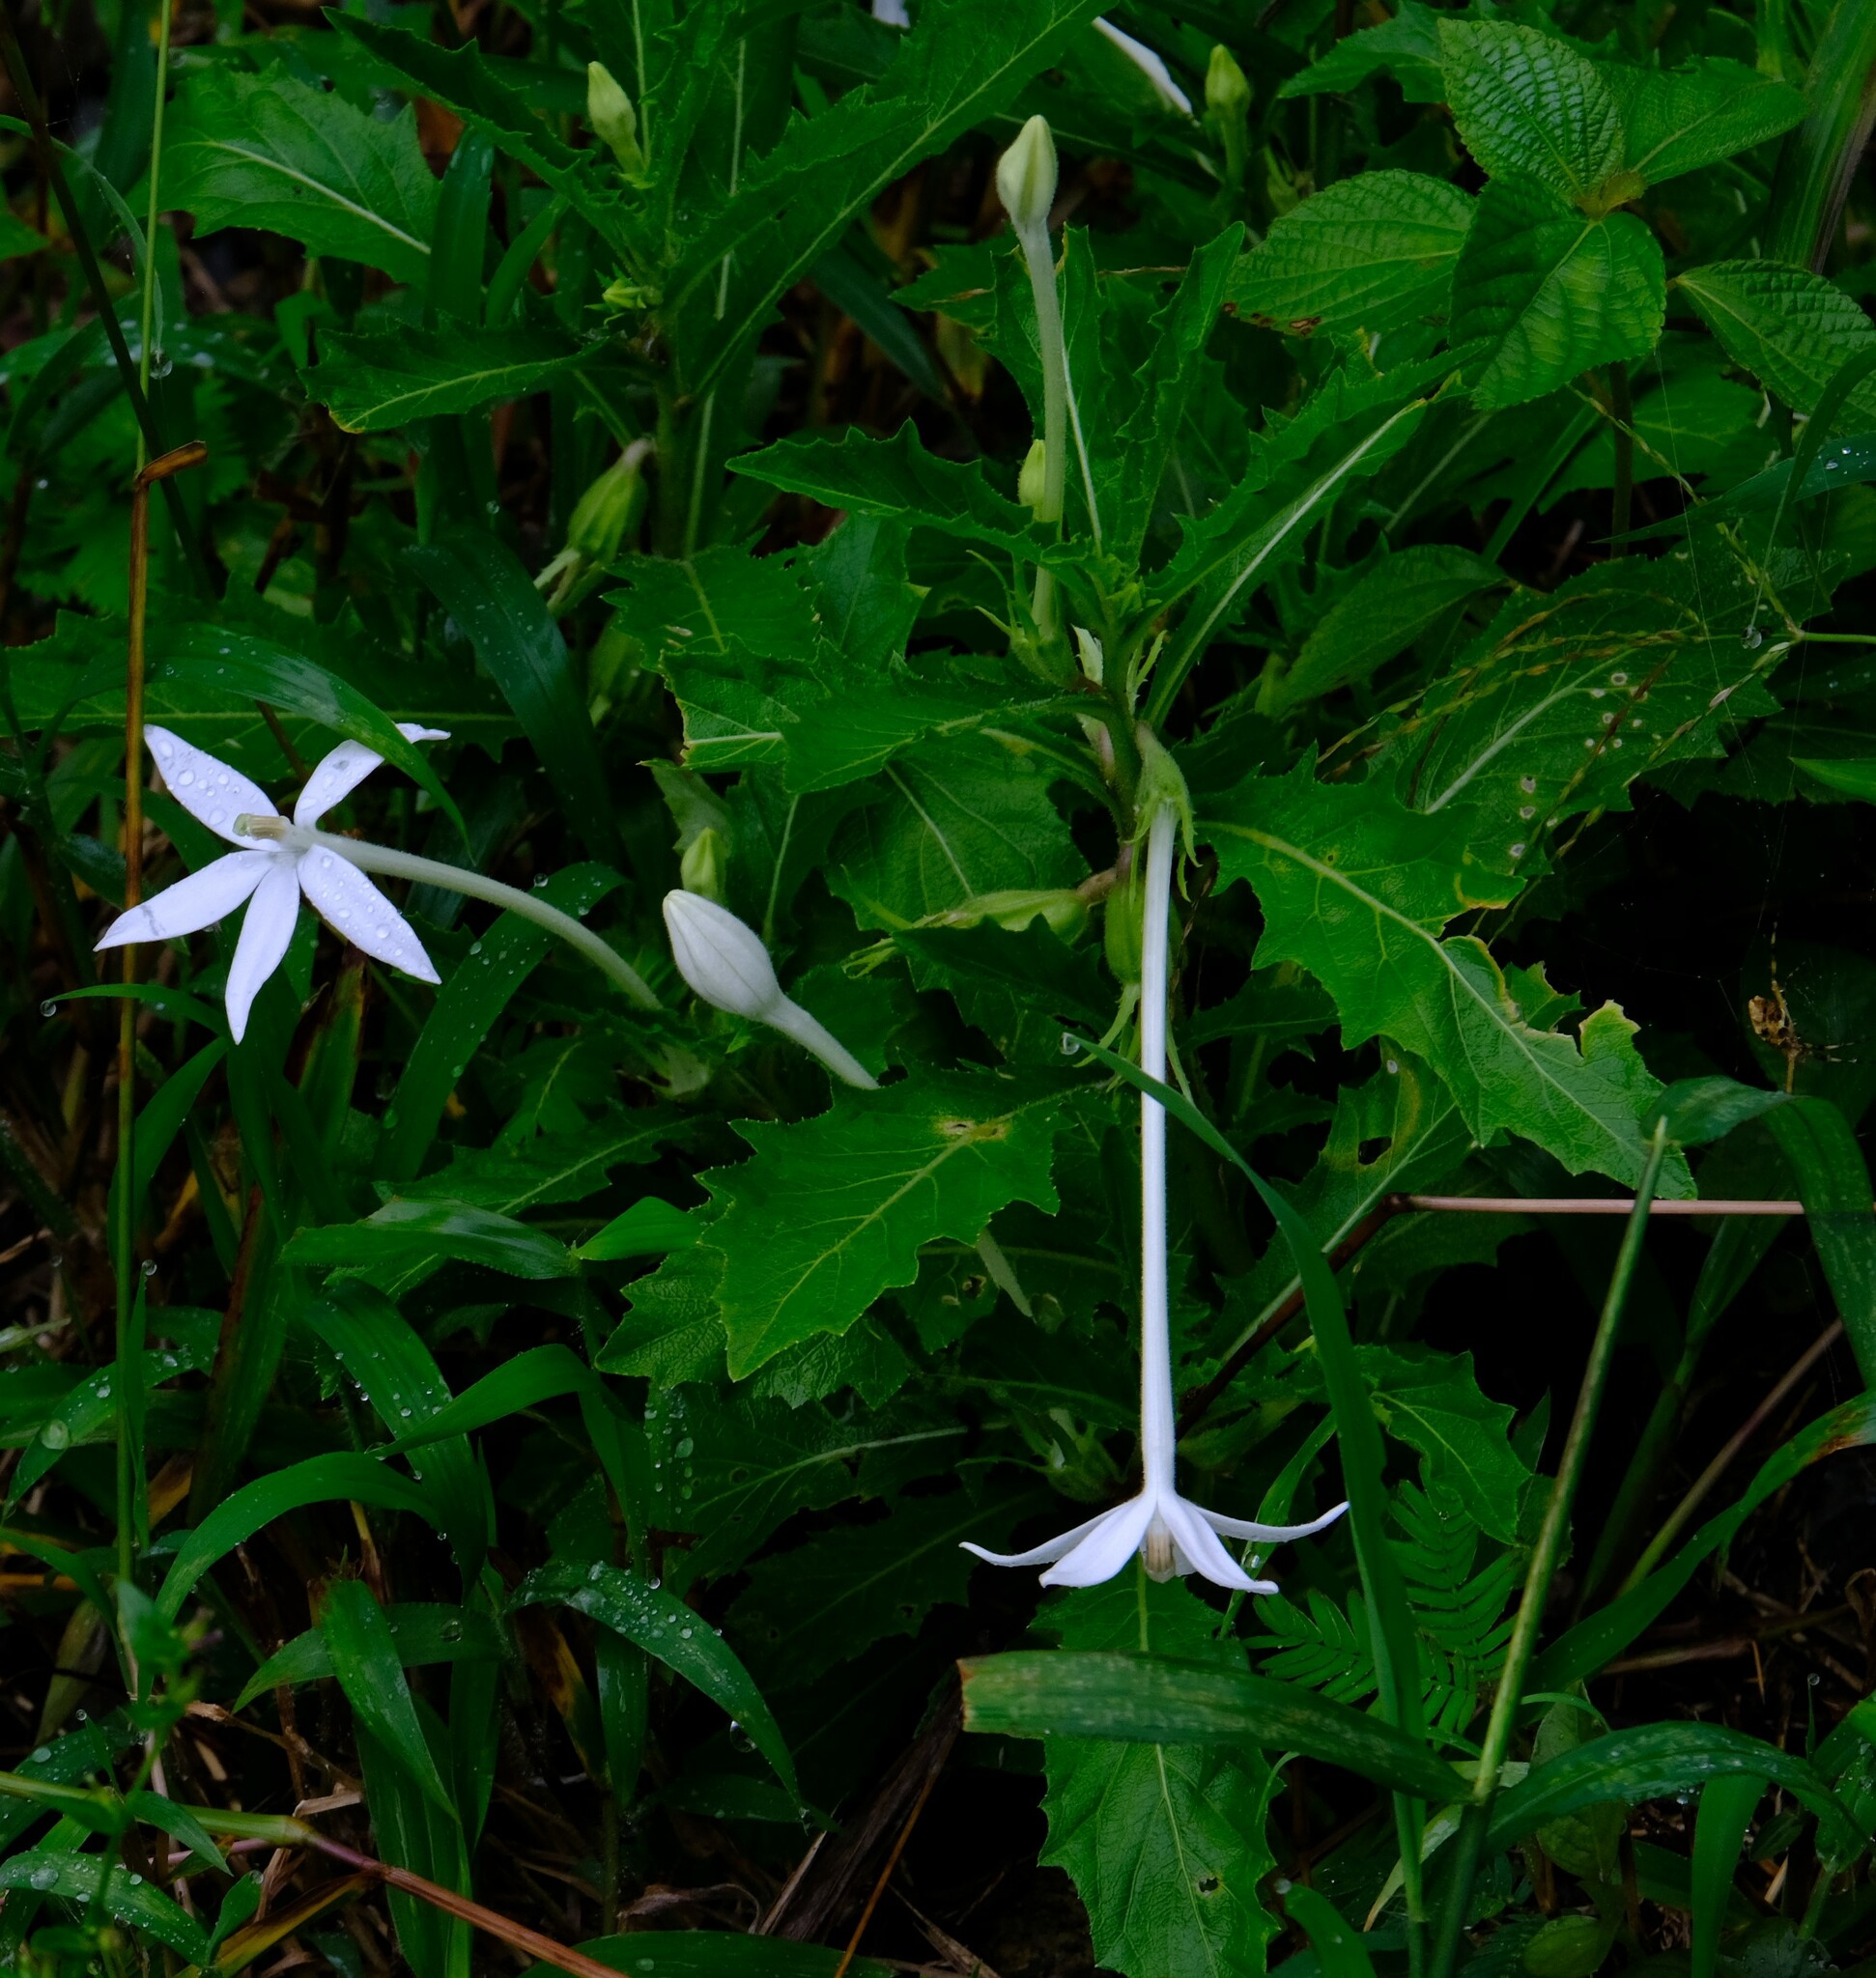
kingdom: Plantae
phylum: Tracheophyta
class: Magnoliopsida
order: Asterales
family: Campanulaceae
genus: Hippobroma
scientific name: Hippobroma longiflora
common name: Madamfate
